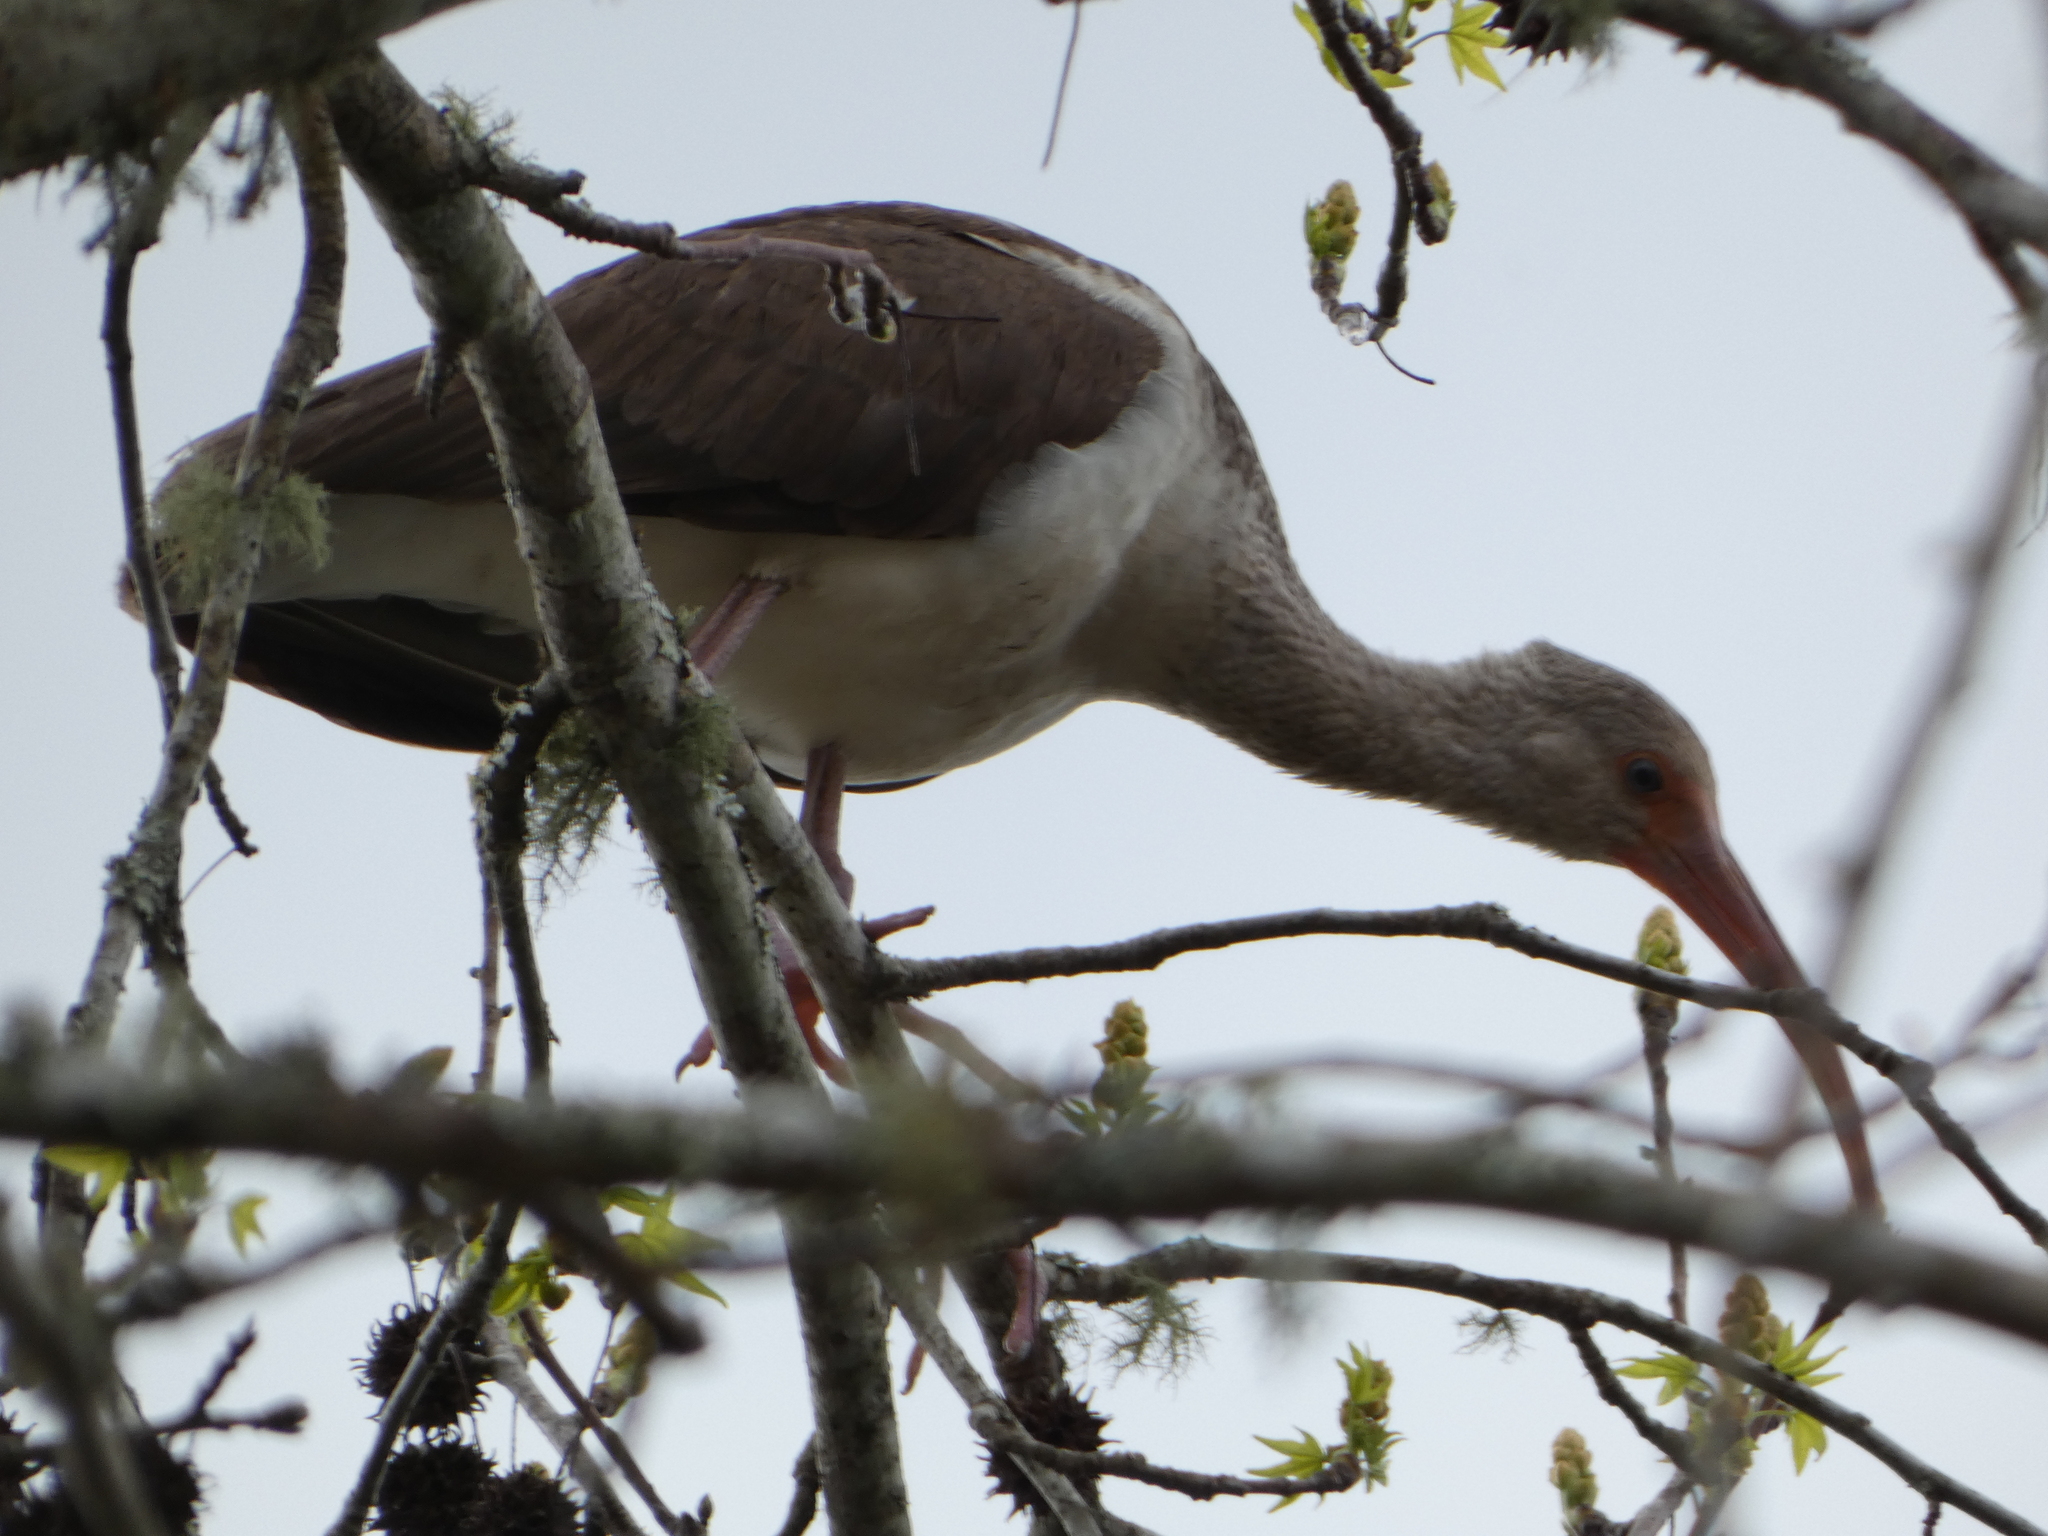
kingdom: Animalia
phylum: Chordata
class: Aves
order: Pelecaniformes
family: Threskiornithidae
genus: Eudocimus
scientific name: Eudocimus albus
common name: White ibis
